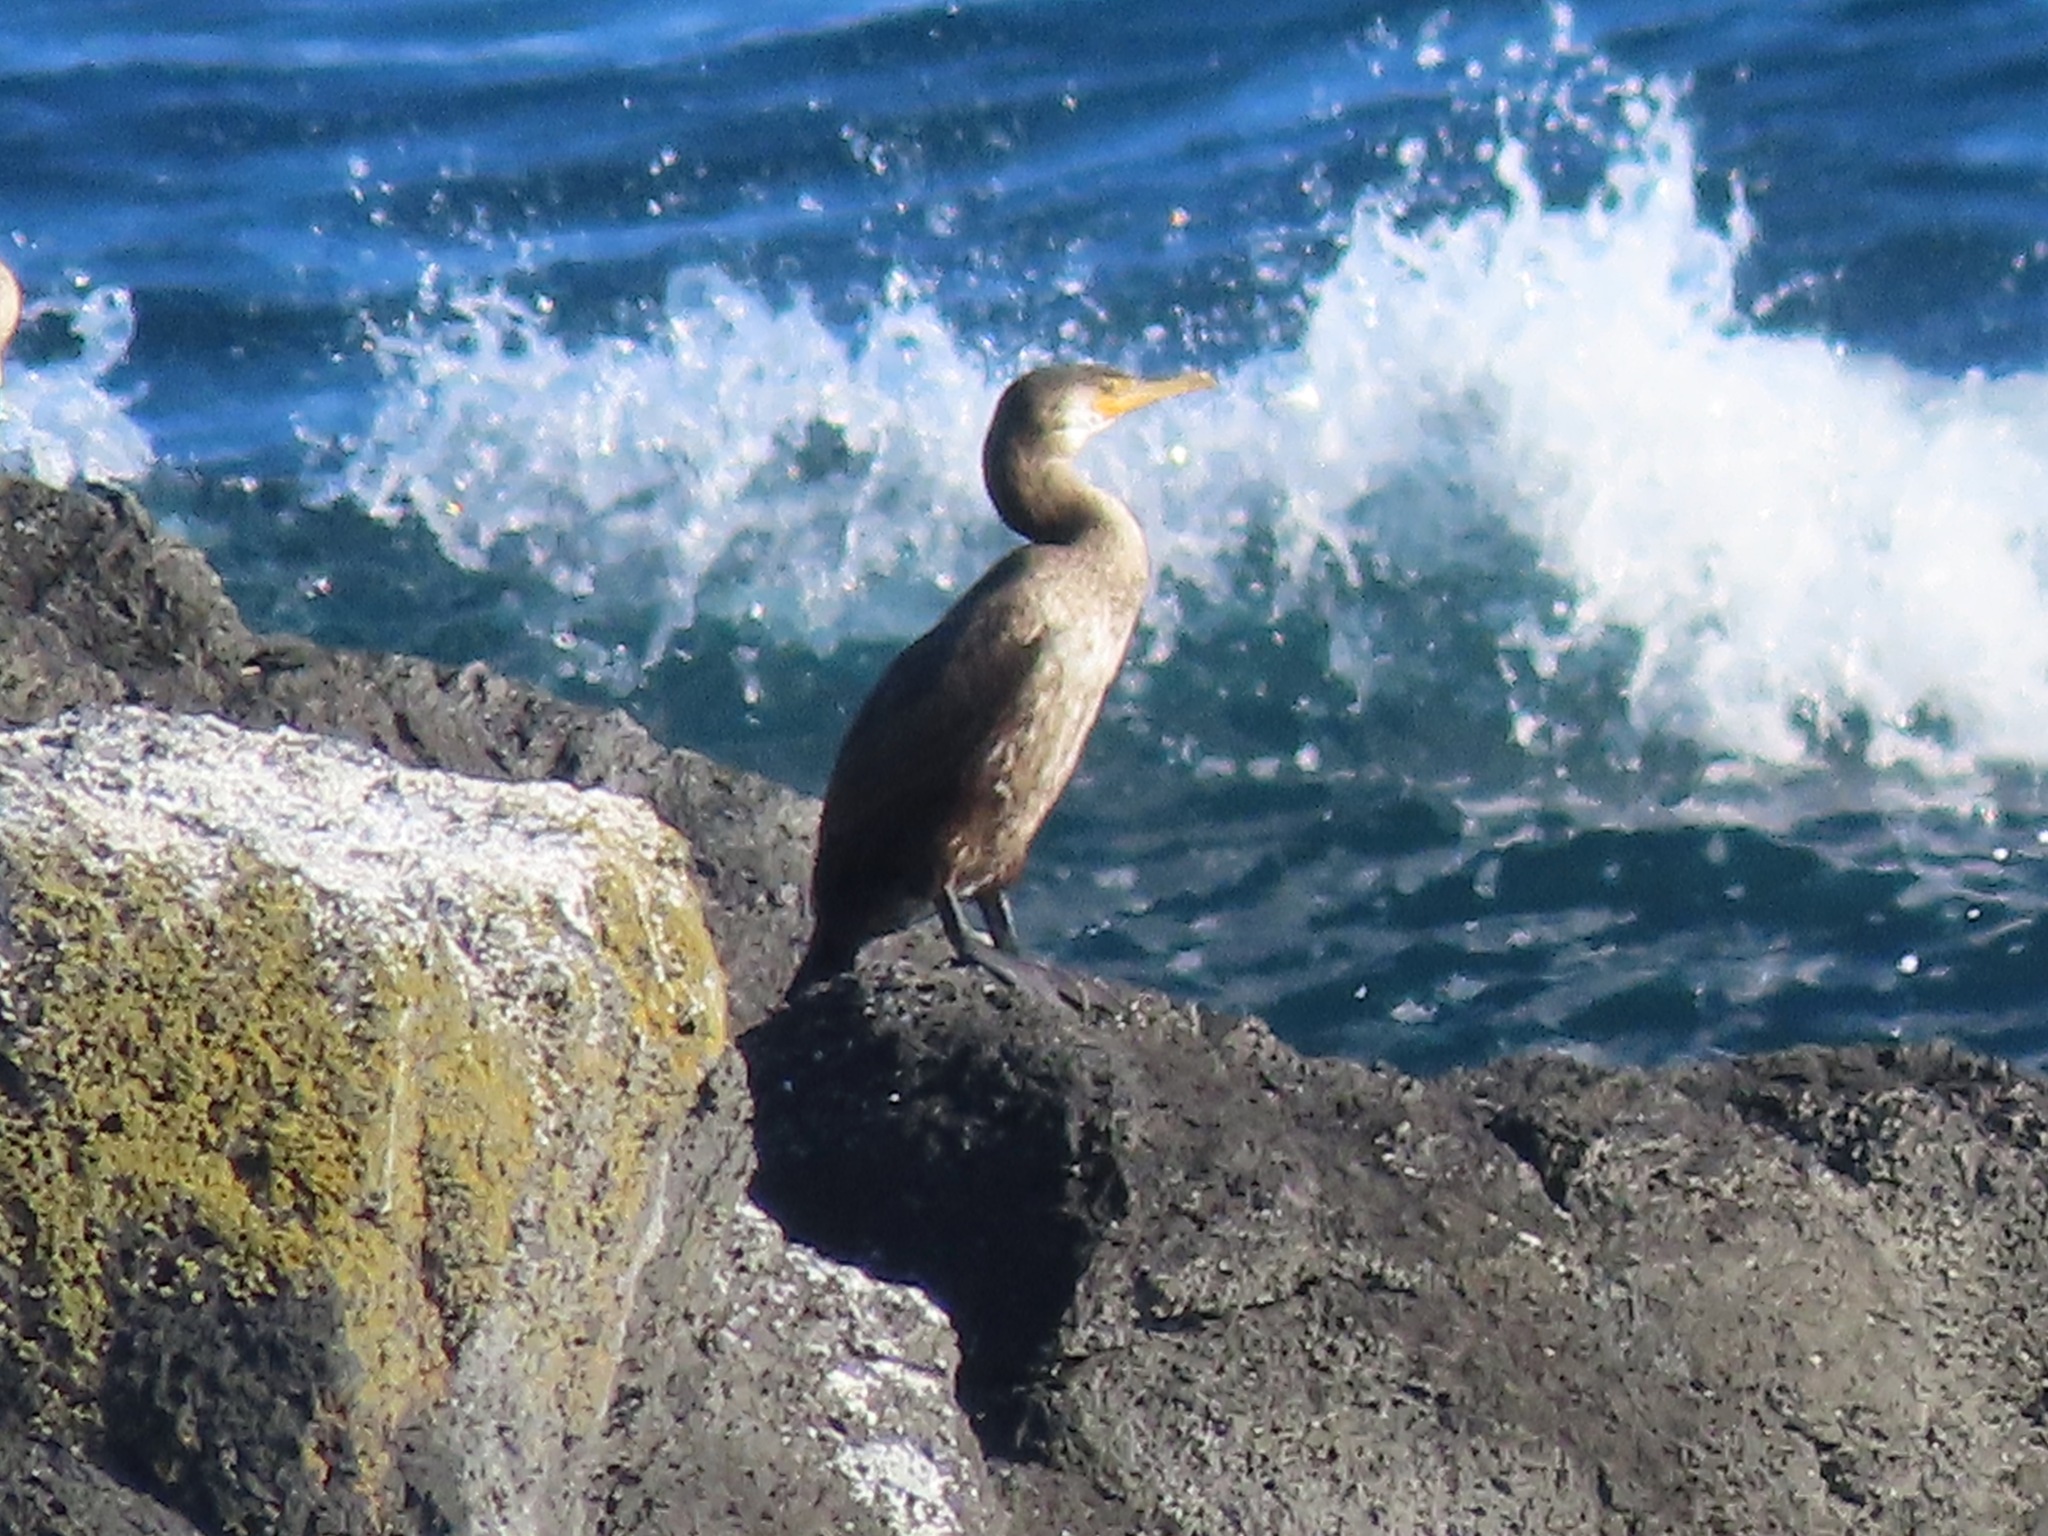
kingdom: Animalia
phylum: Chordata
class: Aves
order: Suliformes
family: Phalacrocoracidae
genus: Phalacrocorax
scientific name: Phalacrocorax capillatus
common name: Japanese cormorant
